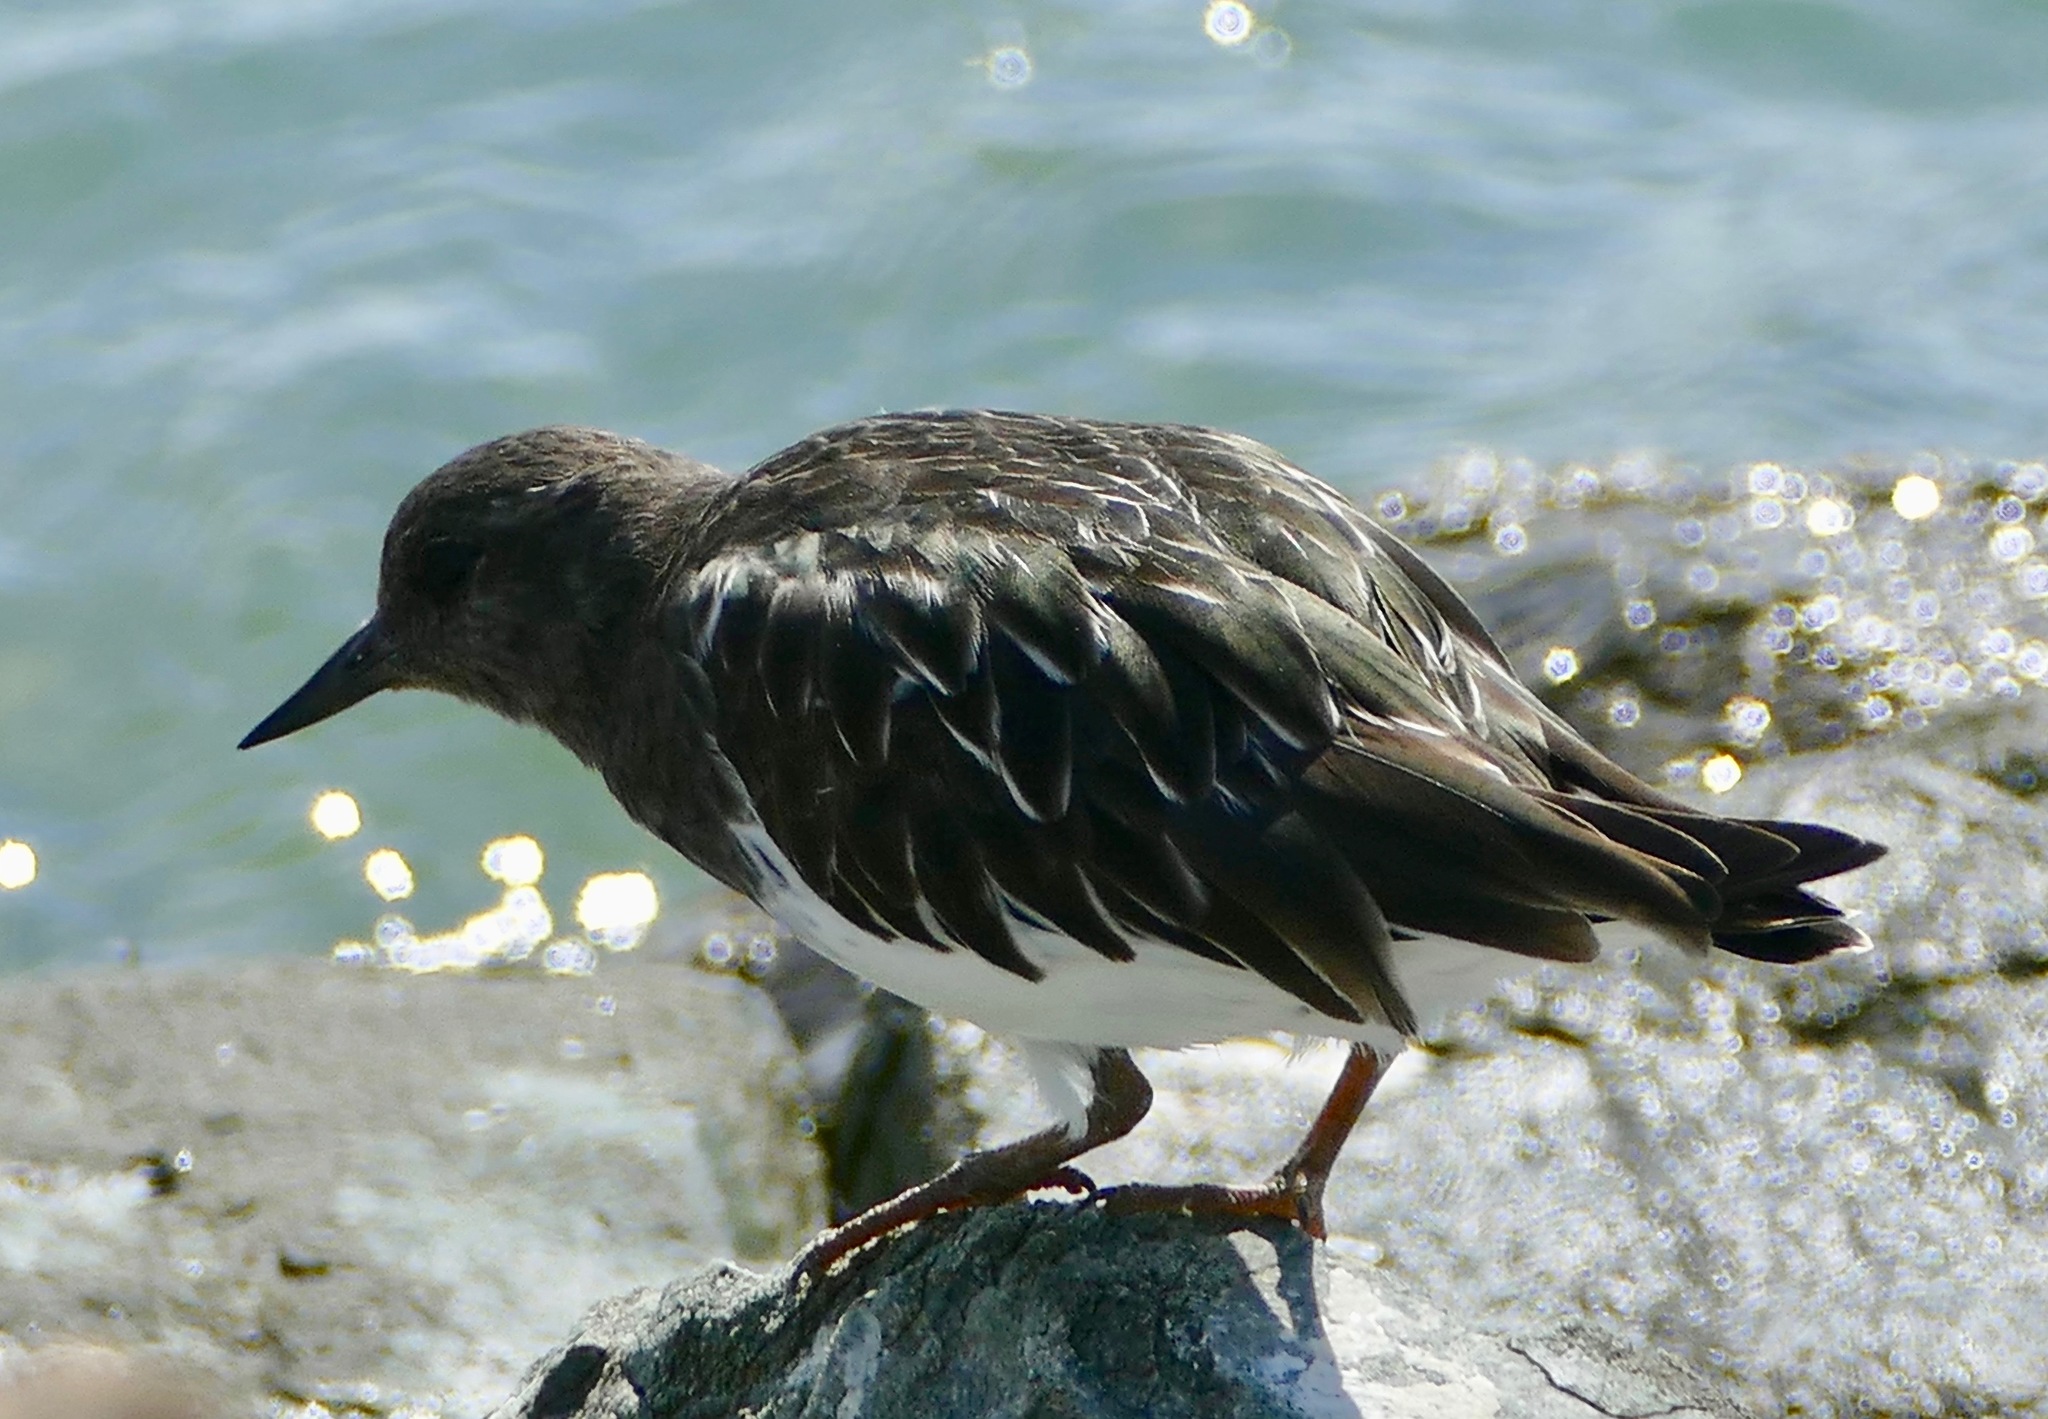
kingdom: Animalia
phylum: Chordata
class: Aves
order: Charadriiformes
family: Scolopacidae
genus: Arenaria
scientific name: Arenaria melanocephala
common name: Black turnstone
